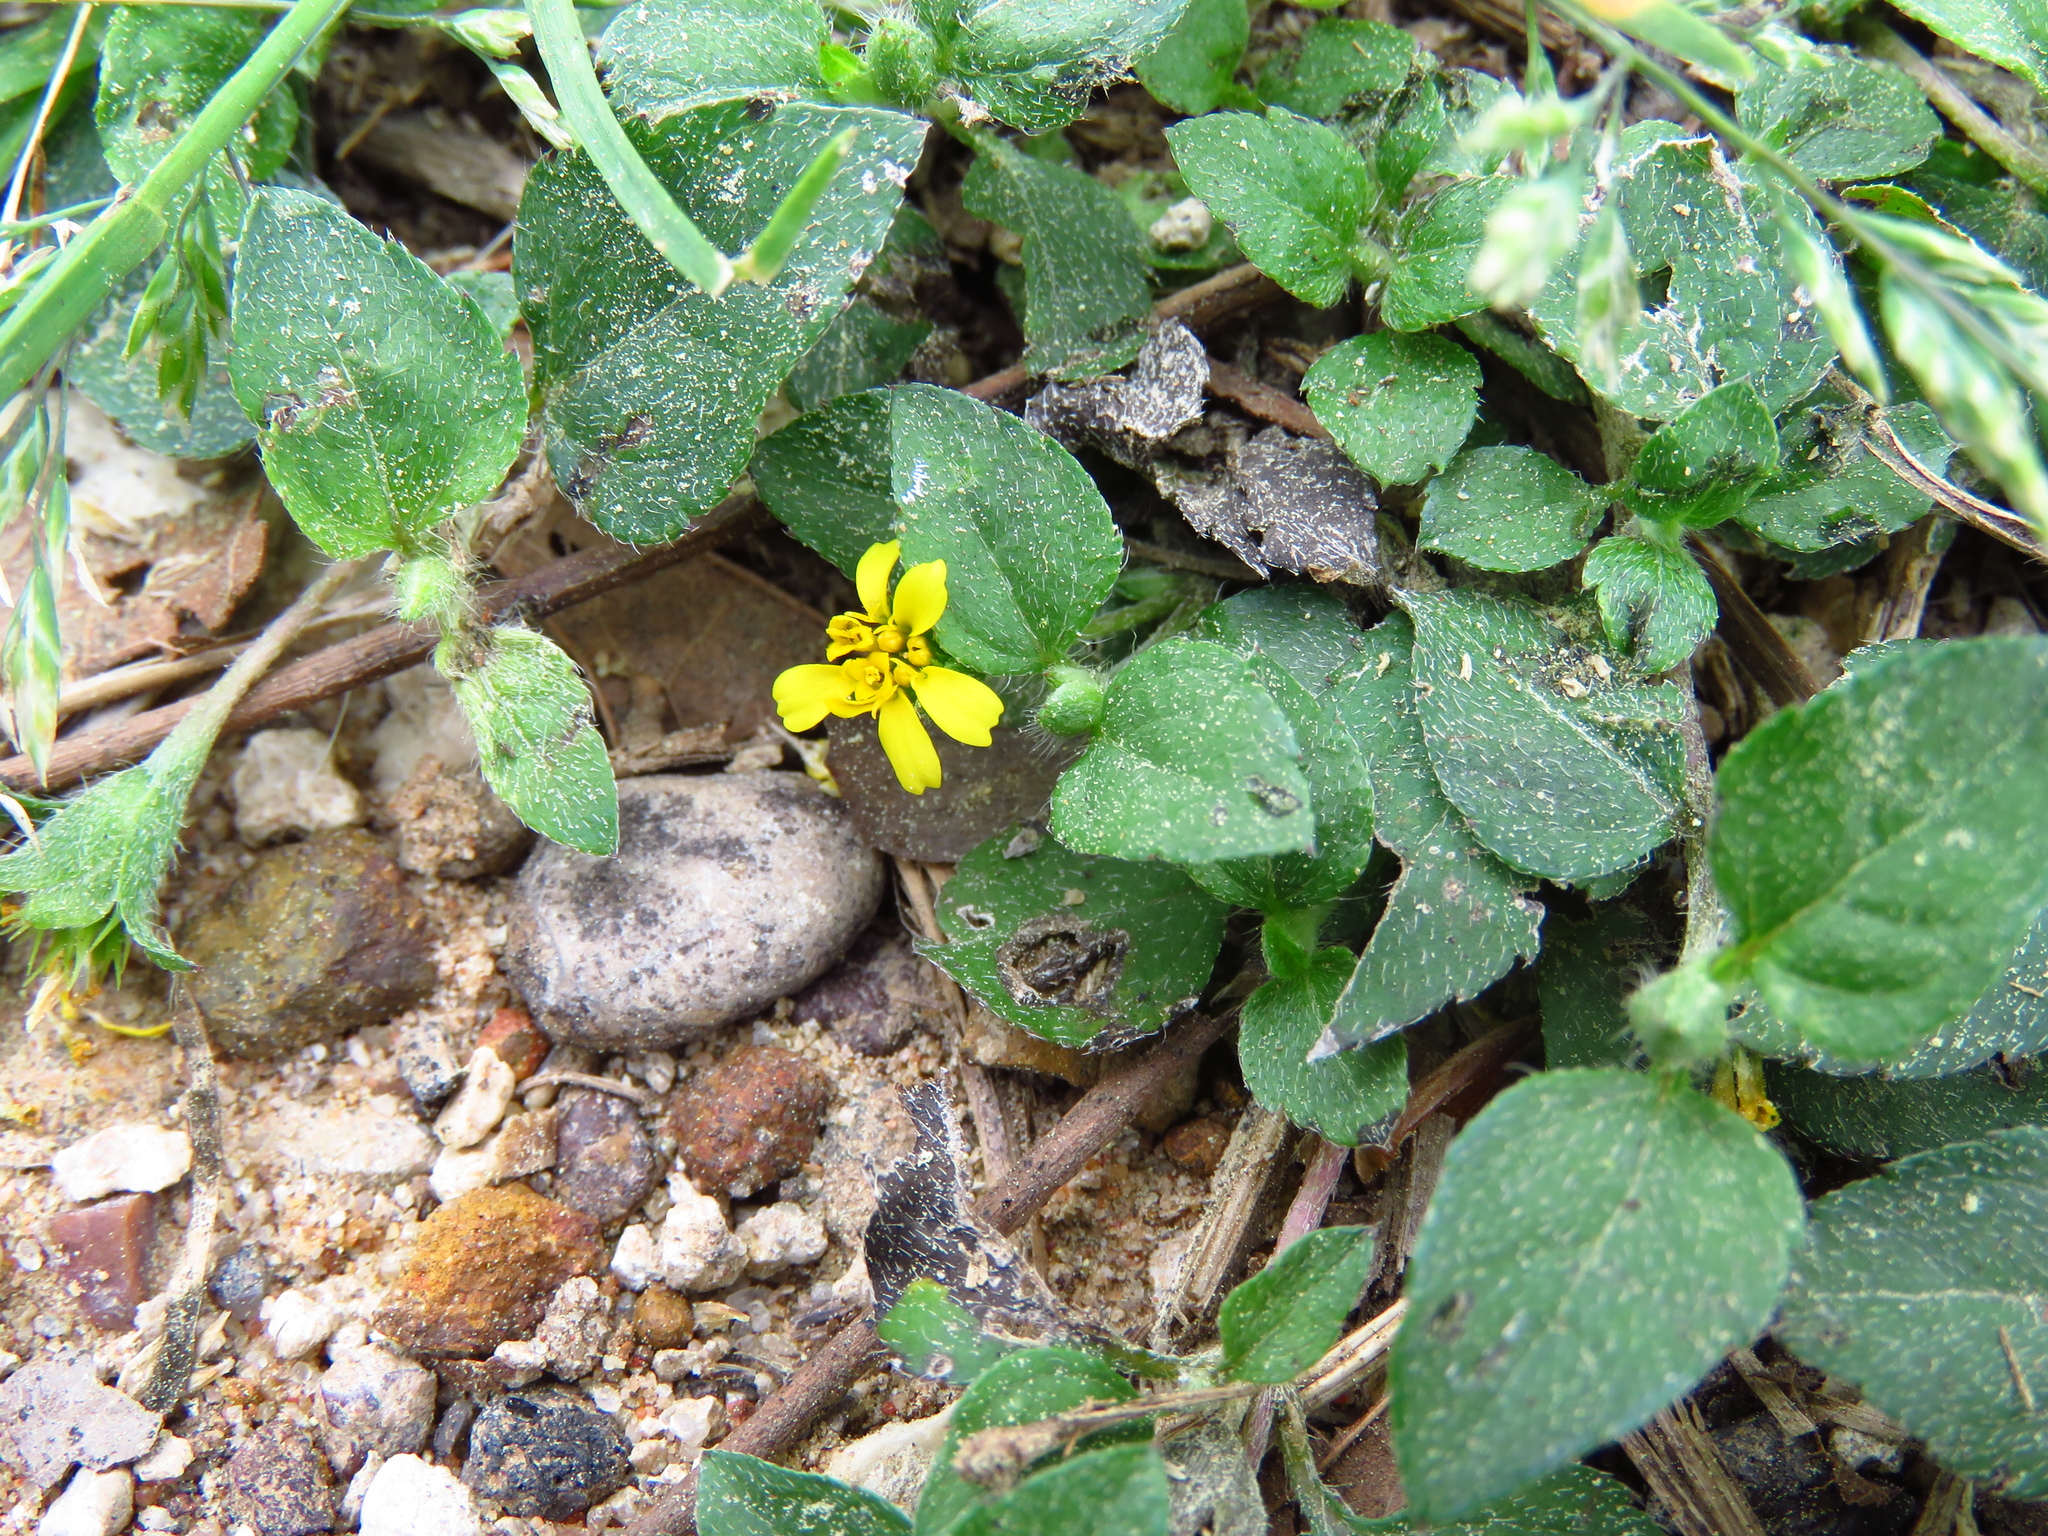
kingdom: Plantae
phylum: Tracheophyta
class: Magnoliopsida
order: Asterales
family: Asteraceae
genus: Calyptocarpus
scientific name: Calyptocarpus vialis
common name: Straggler daisy
